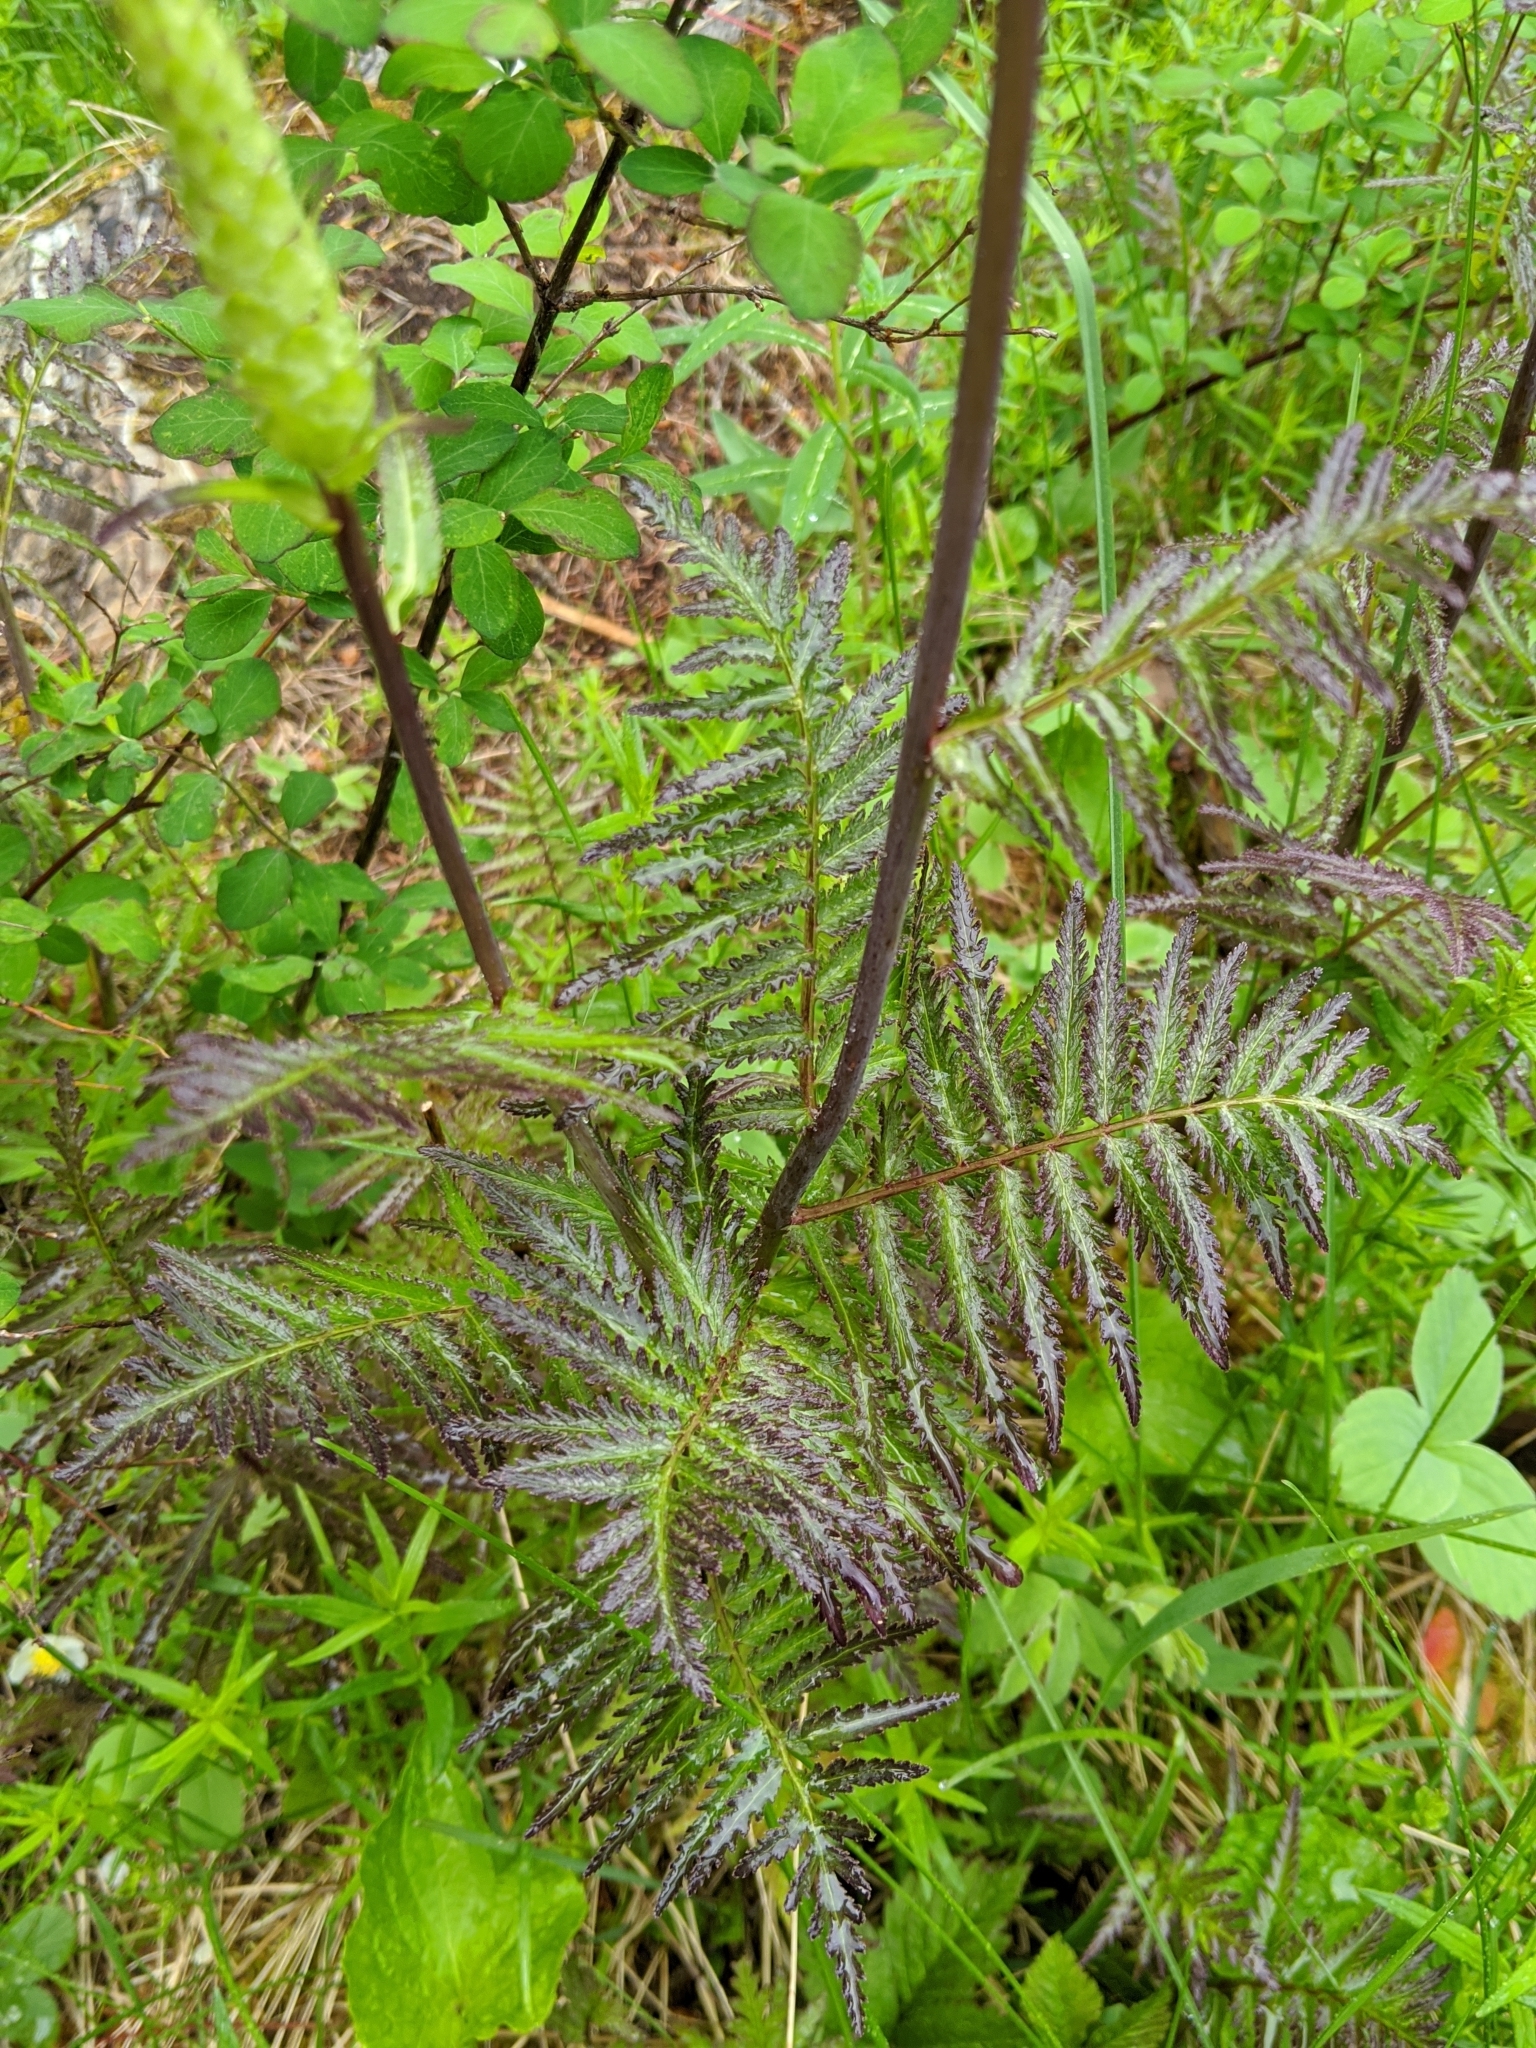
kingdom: Plantae
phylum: Tracheophyta
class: Magnoliopsida
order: Lamiales
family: Orobanchaceae
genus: Pedicularis
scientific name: Pedicularis bracteosa
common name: Bracted lousewort
